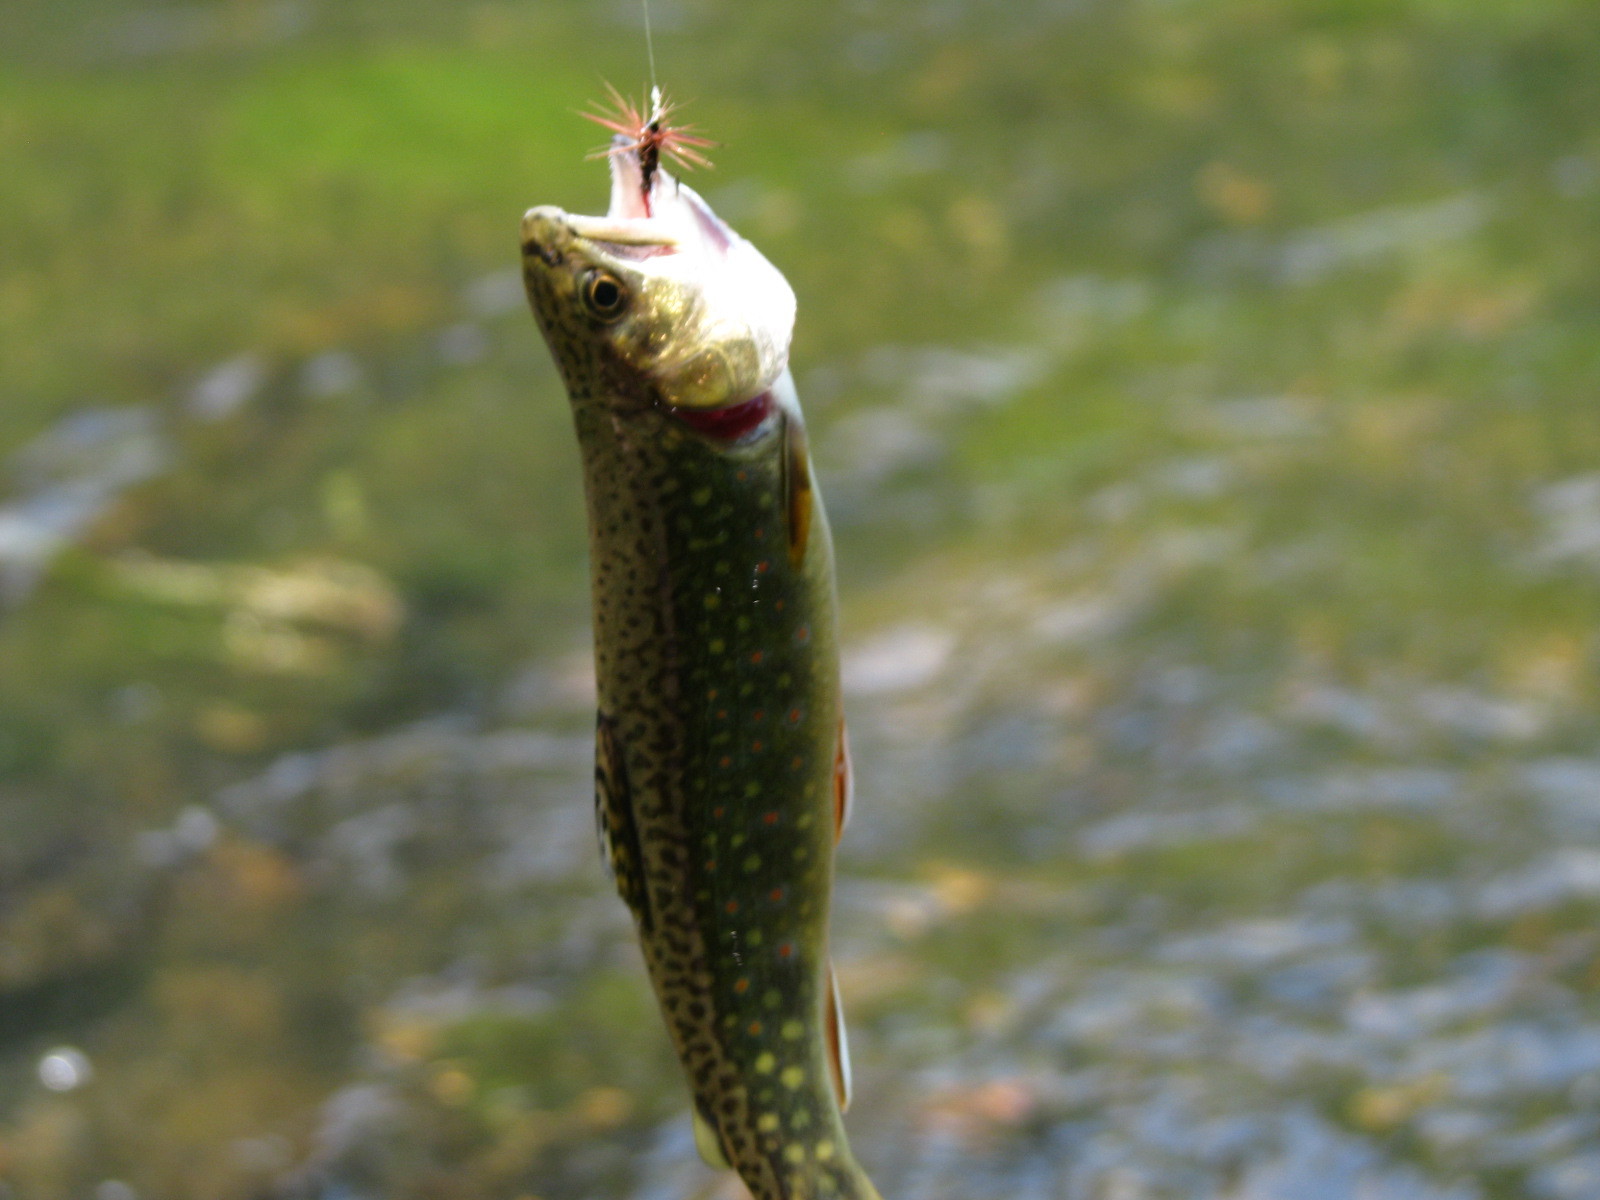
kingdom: Animalia
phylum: Chordata
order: Salmoniformes
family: Salmonidae
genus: Salvelinus
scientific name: Salvelinus fontinalis
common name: Brook trout
